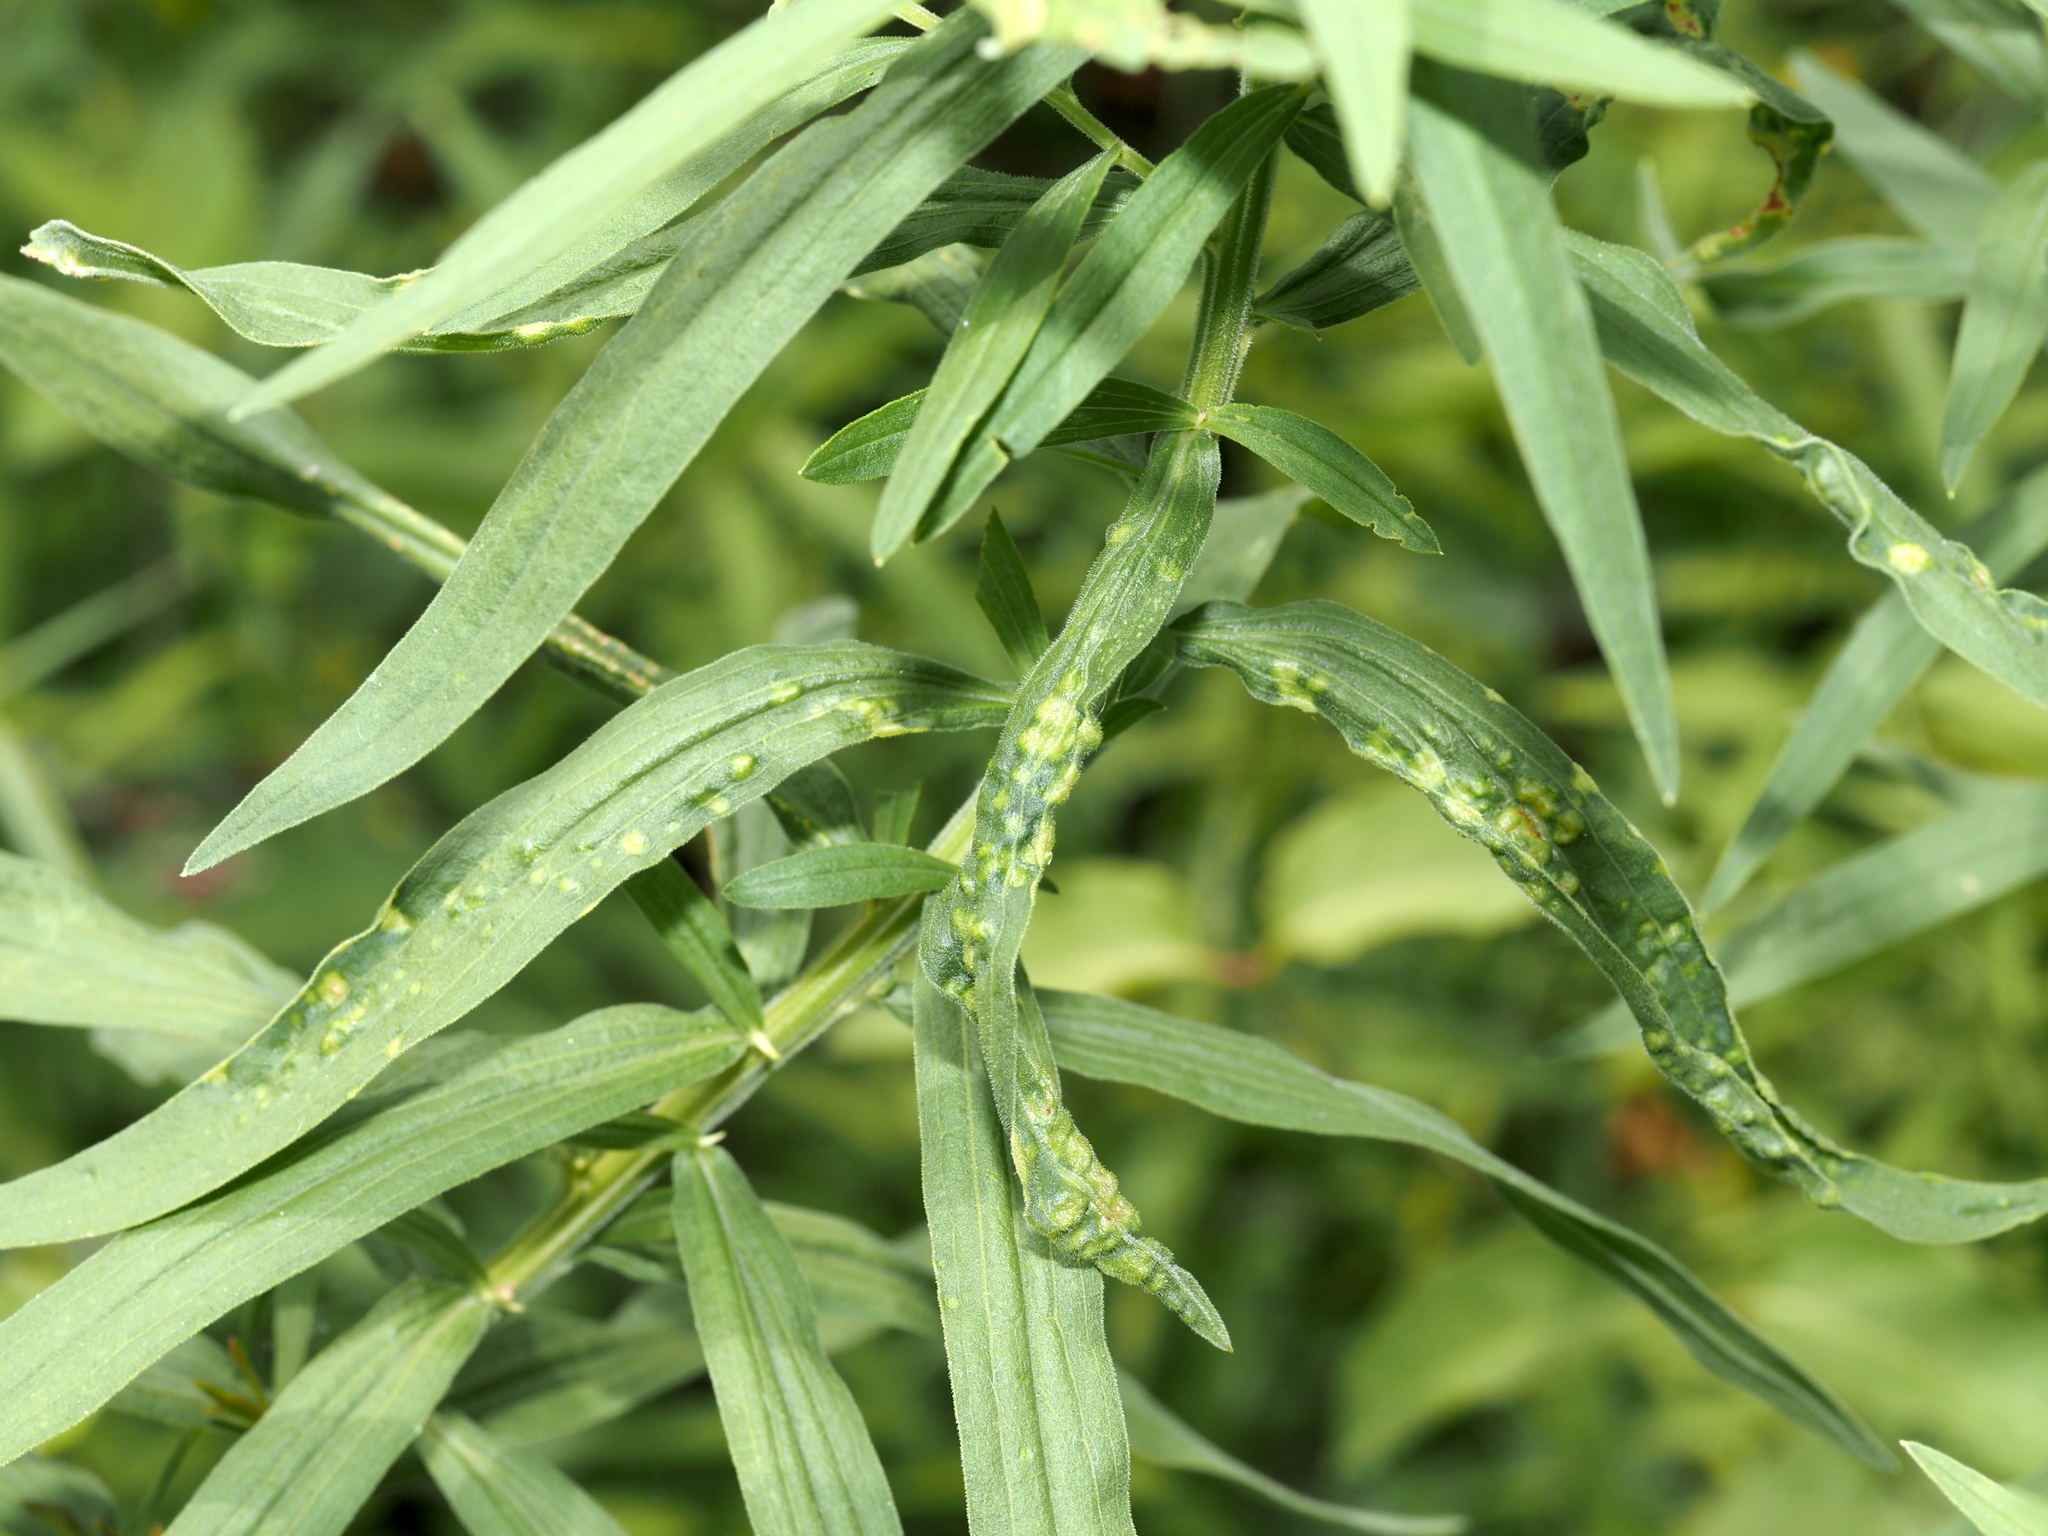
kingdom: Animalia
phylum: Arthropoda
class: Insecta
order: Diptera
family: Cecidomyiidae
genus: Dasineura
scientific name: Dasineura carbonaria
